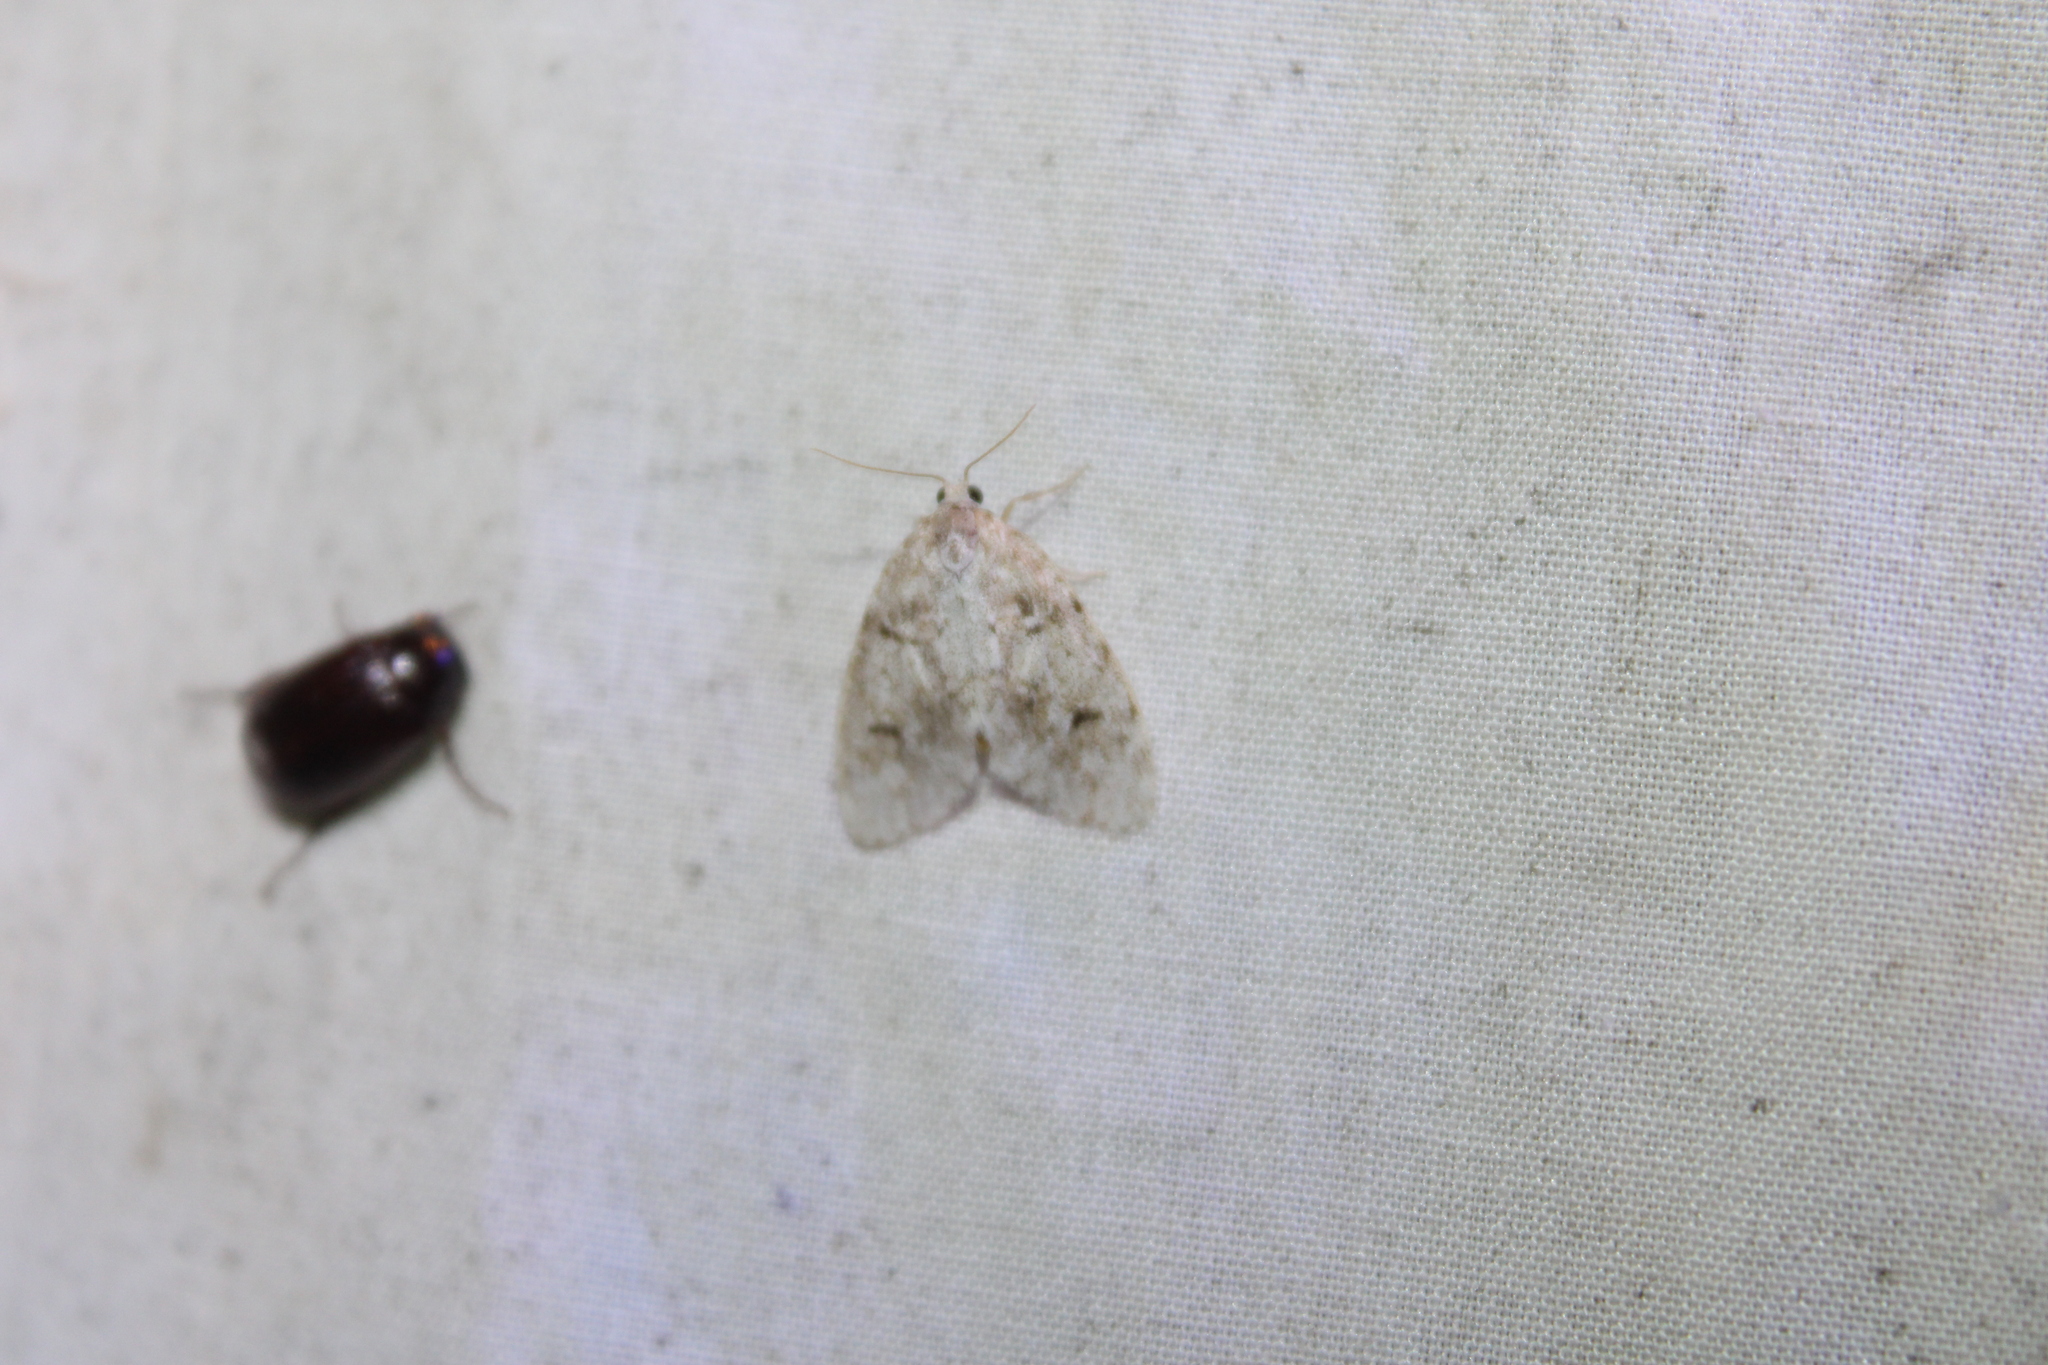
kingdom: Animalia
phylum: Arthropoda
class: Insecta
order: Lepidoptera
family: Erebidae
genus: Clemensia
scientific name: Clemensia albata
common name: Little white lichen moth
